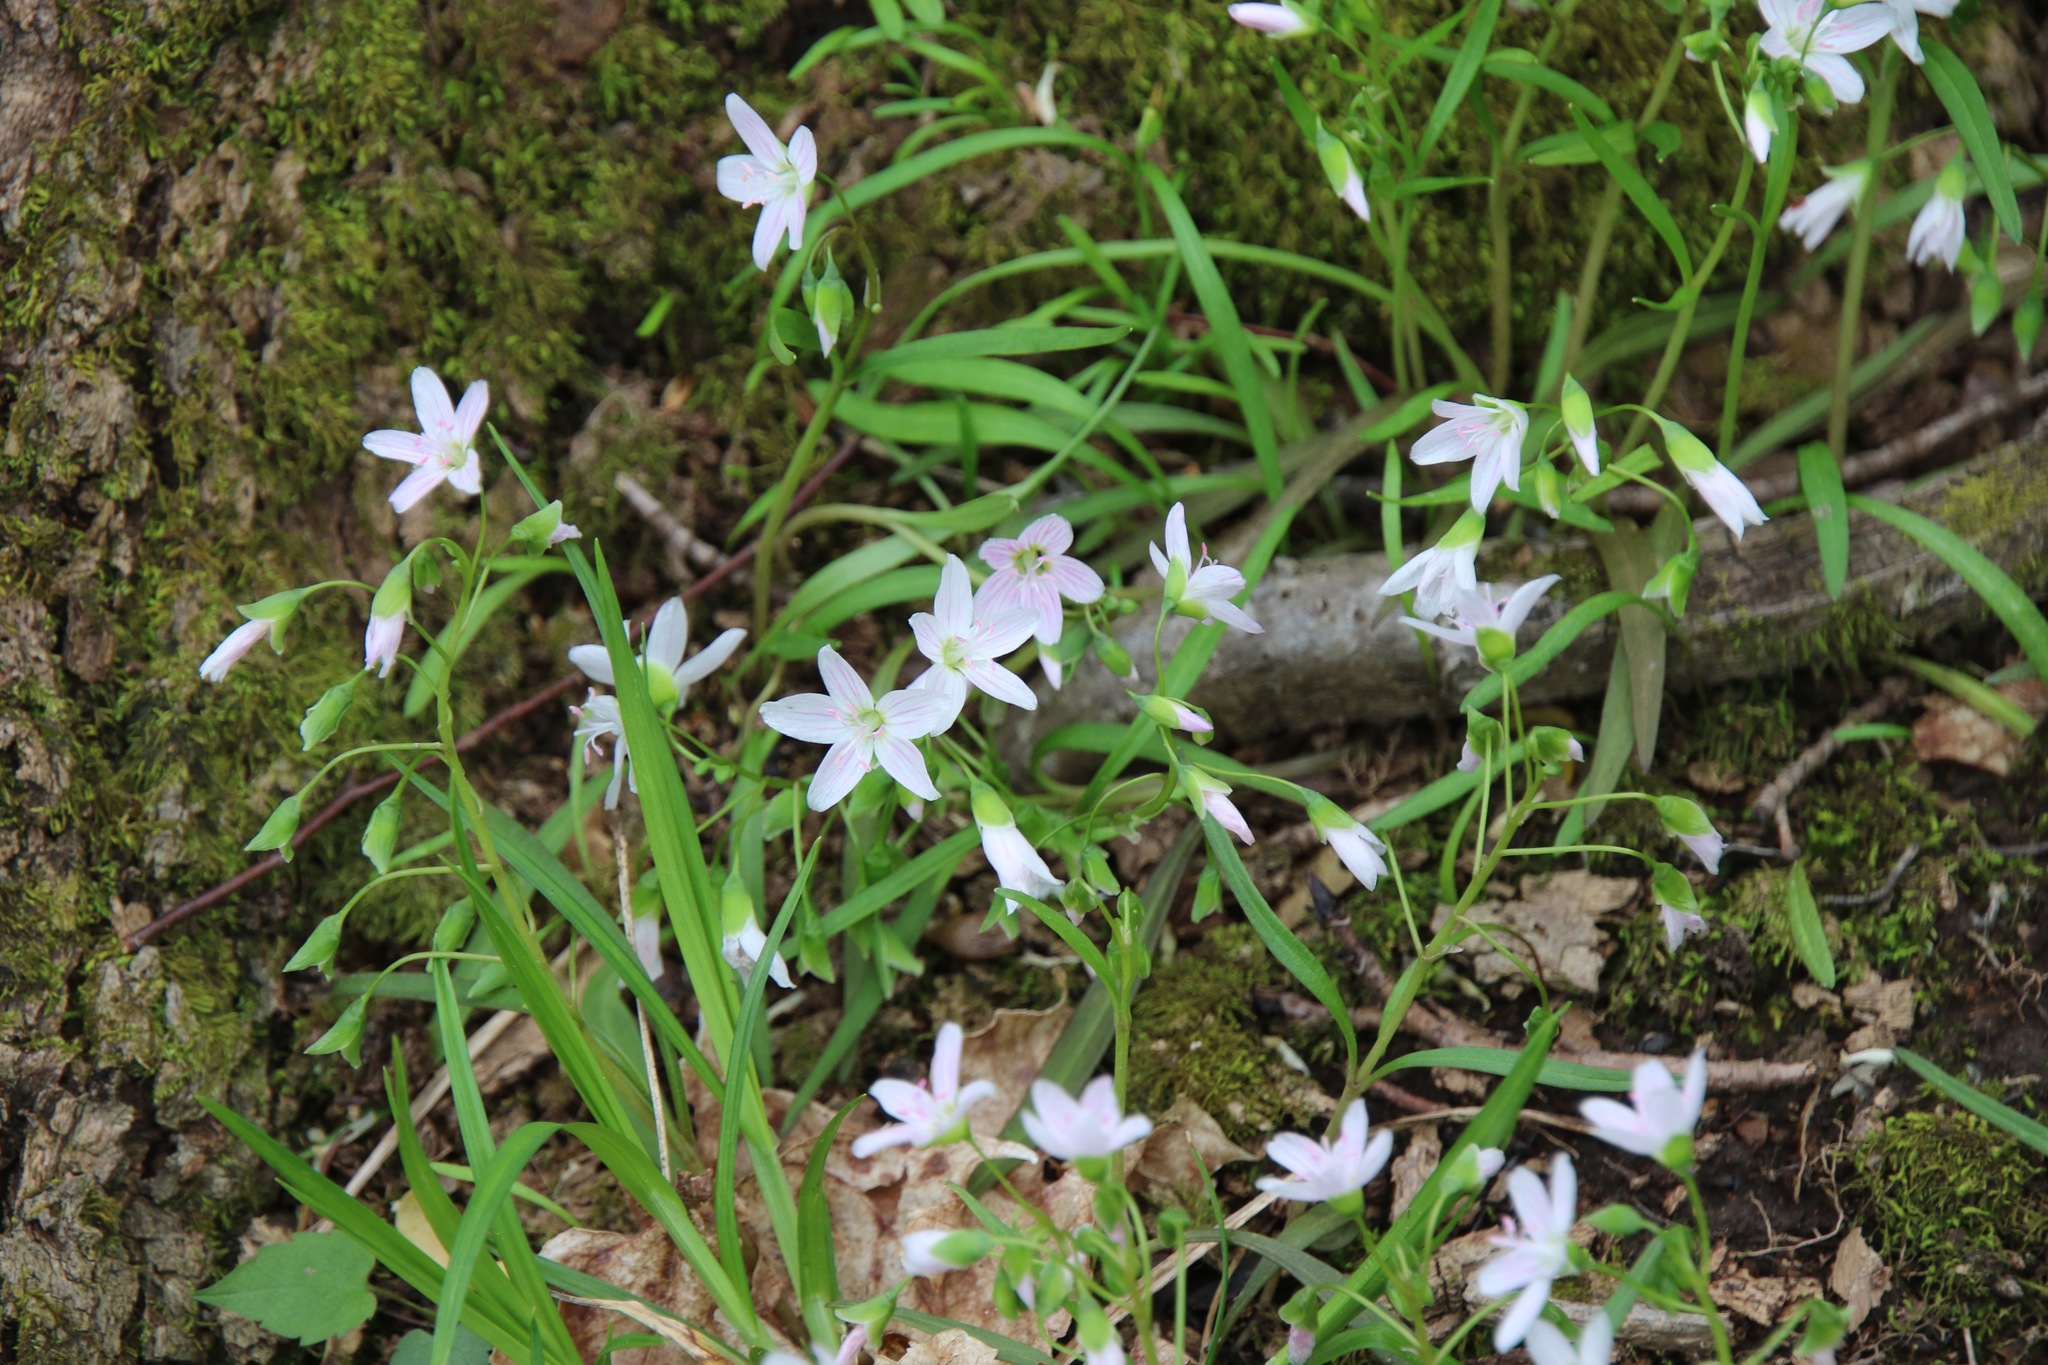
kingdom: Plantae
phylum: Tracheophyta
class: Magnoliopsida
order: Caryophyllales
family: Montiaceae
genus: Claytonia
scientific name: Claytonia virginica
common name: Virginia springbeauty
